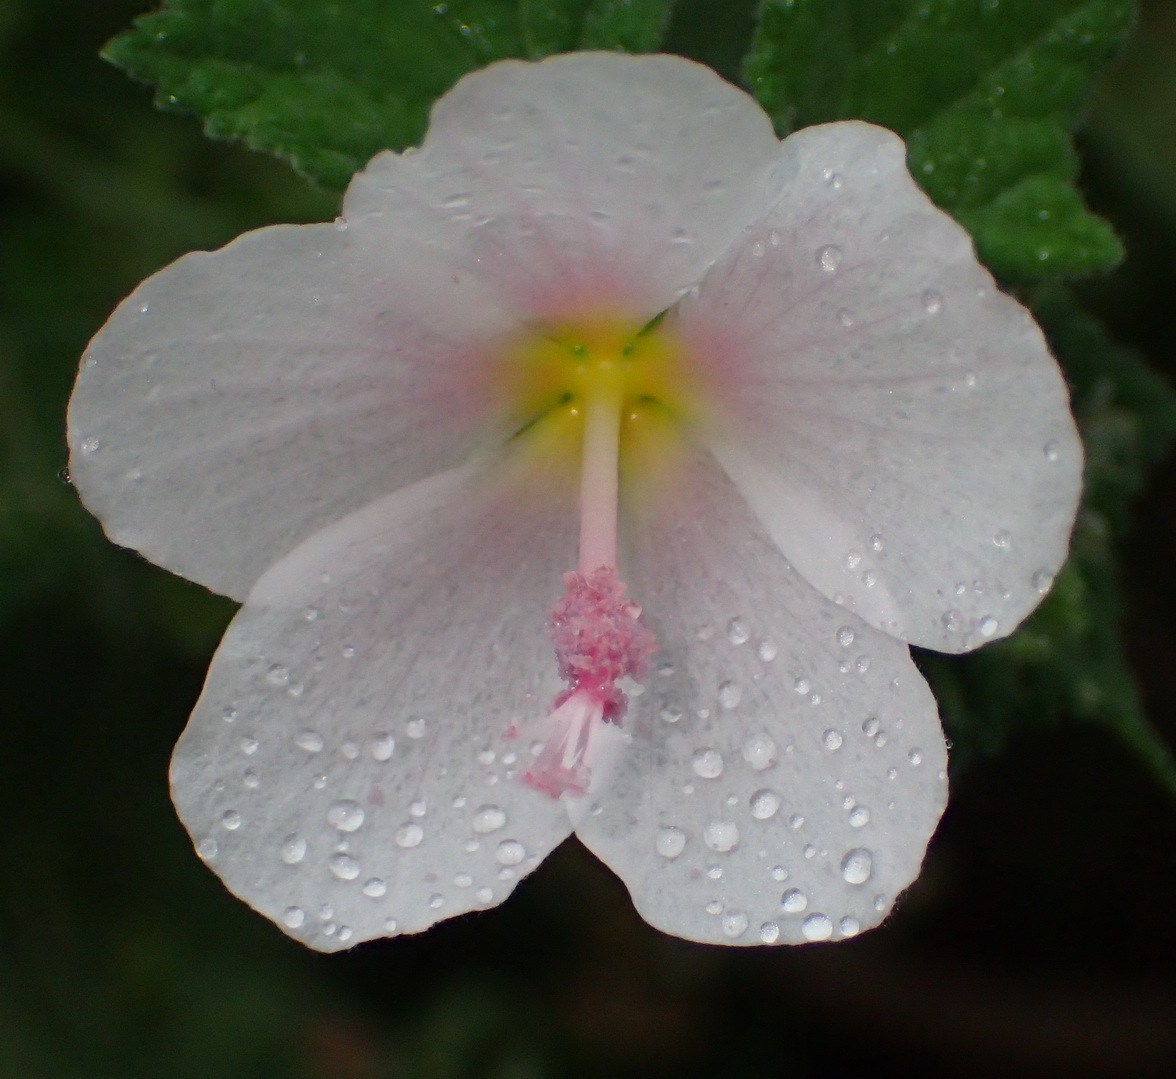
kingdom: Plantae
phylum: Tracheophyta
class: Magnoliopsida
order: Malvales
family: Malvaceae
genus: Pavonia
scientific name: Pavonia columella
